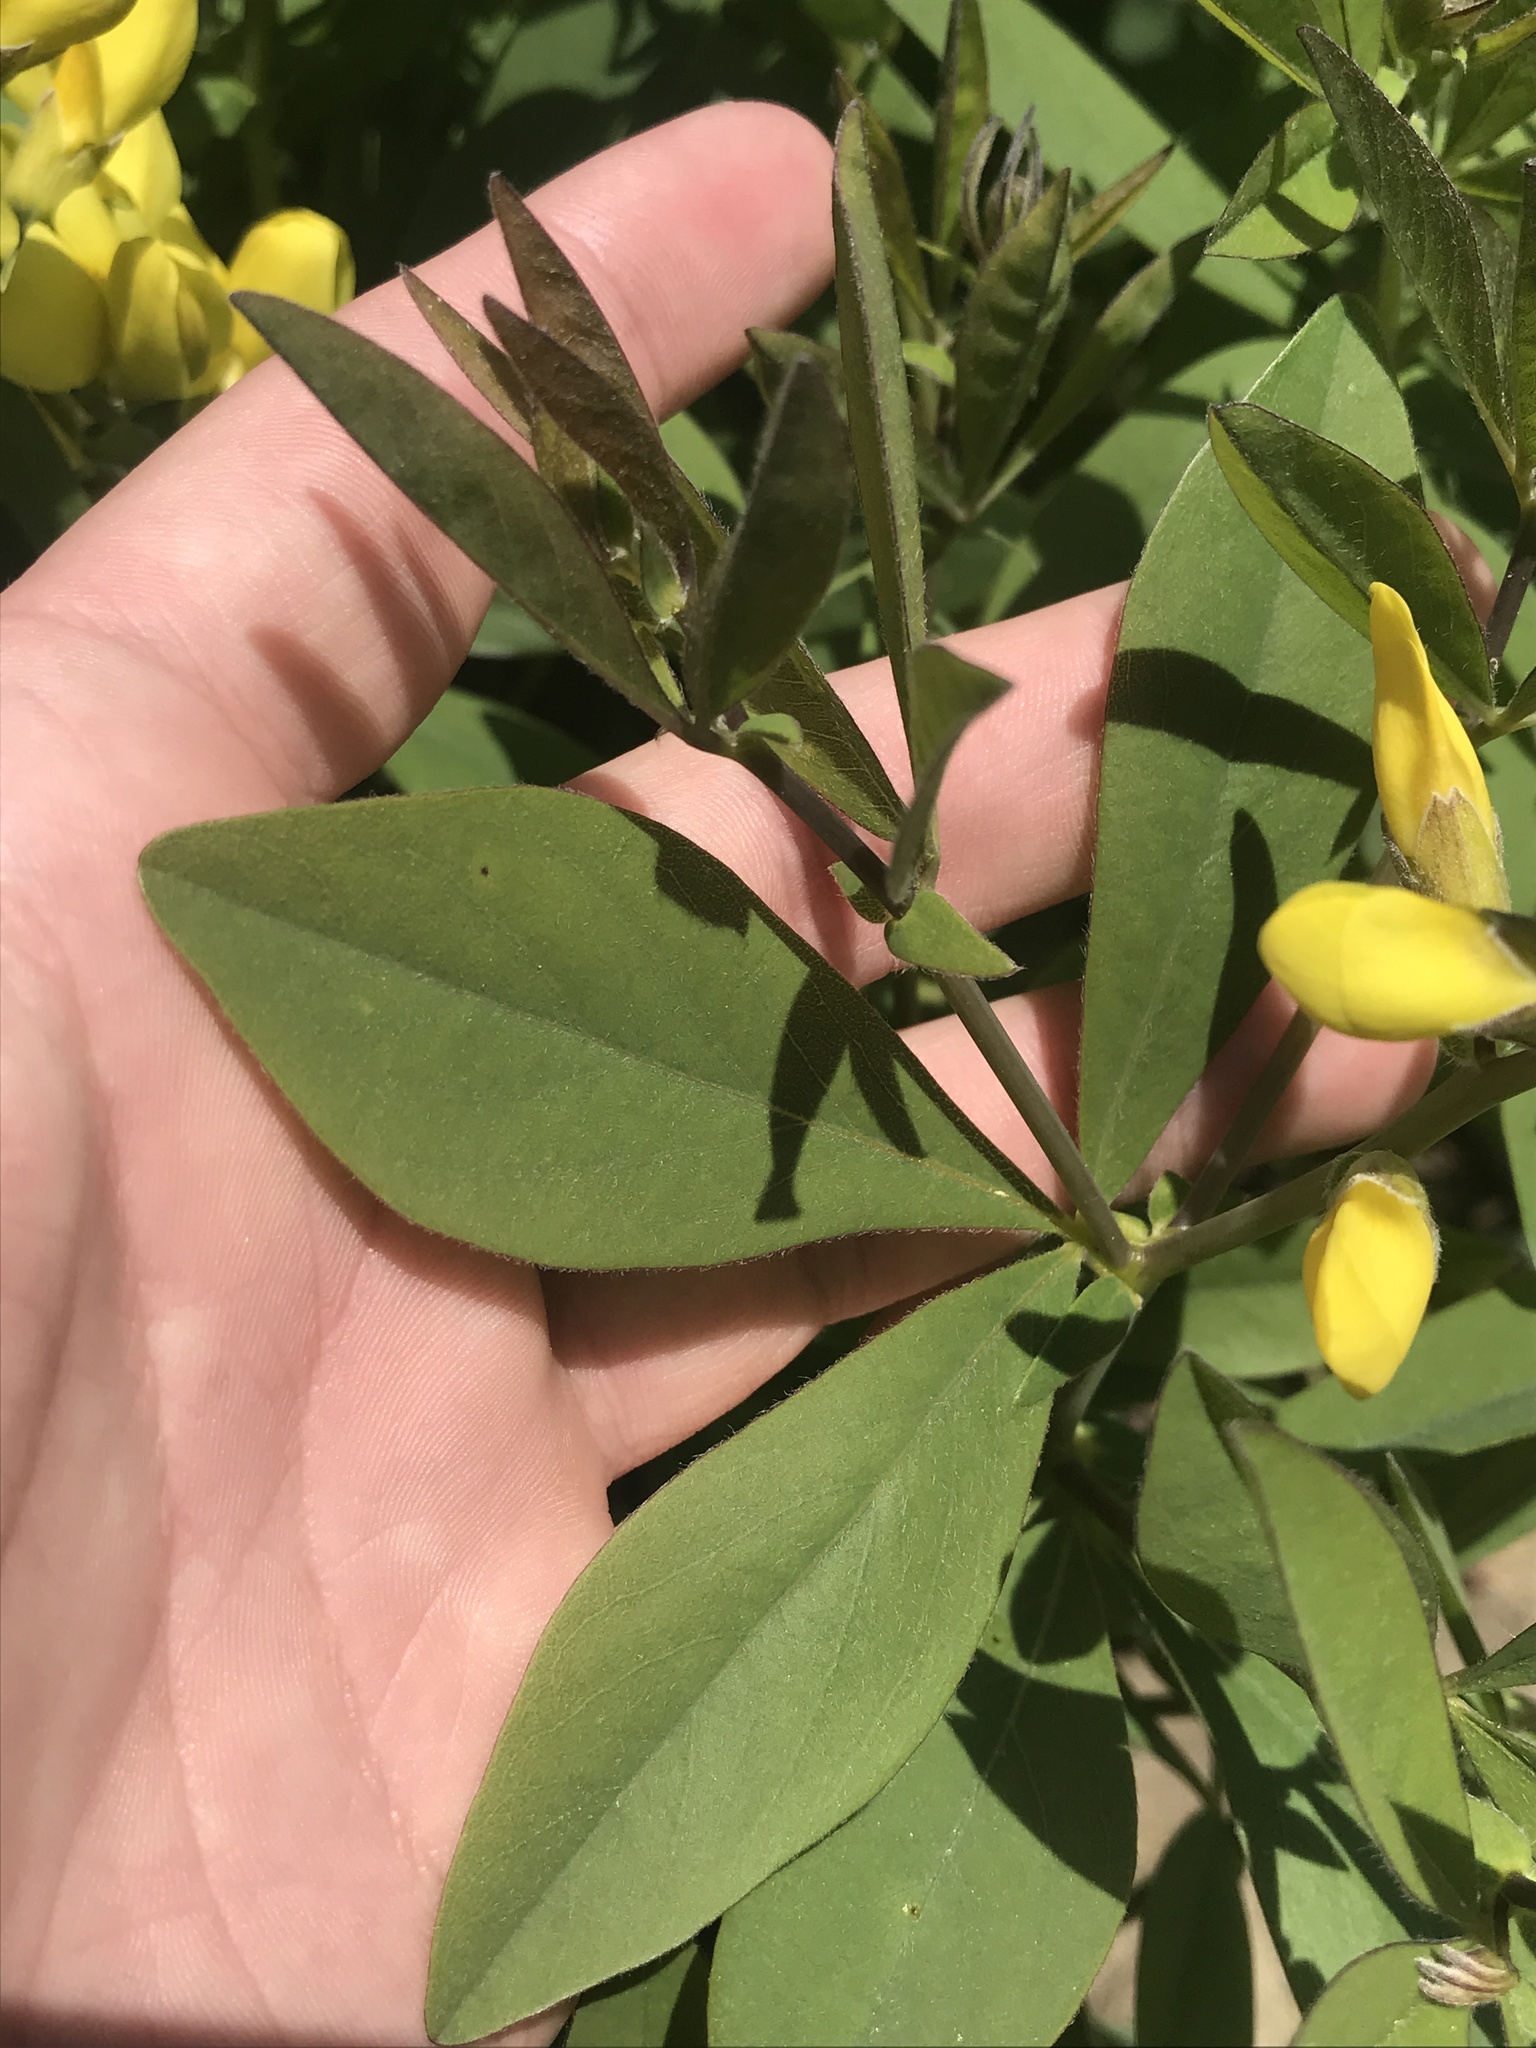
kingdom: Plantae
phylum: Tracheophyta
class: Magnoliopsida
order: Fabales
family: Fabaceae
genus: Baptisia
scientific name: Baptisia sphaerocarpa
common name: Round wild indigo
